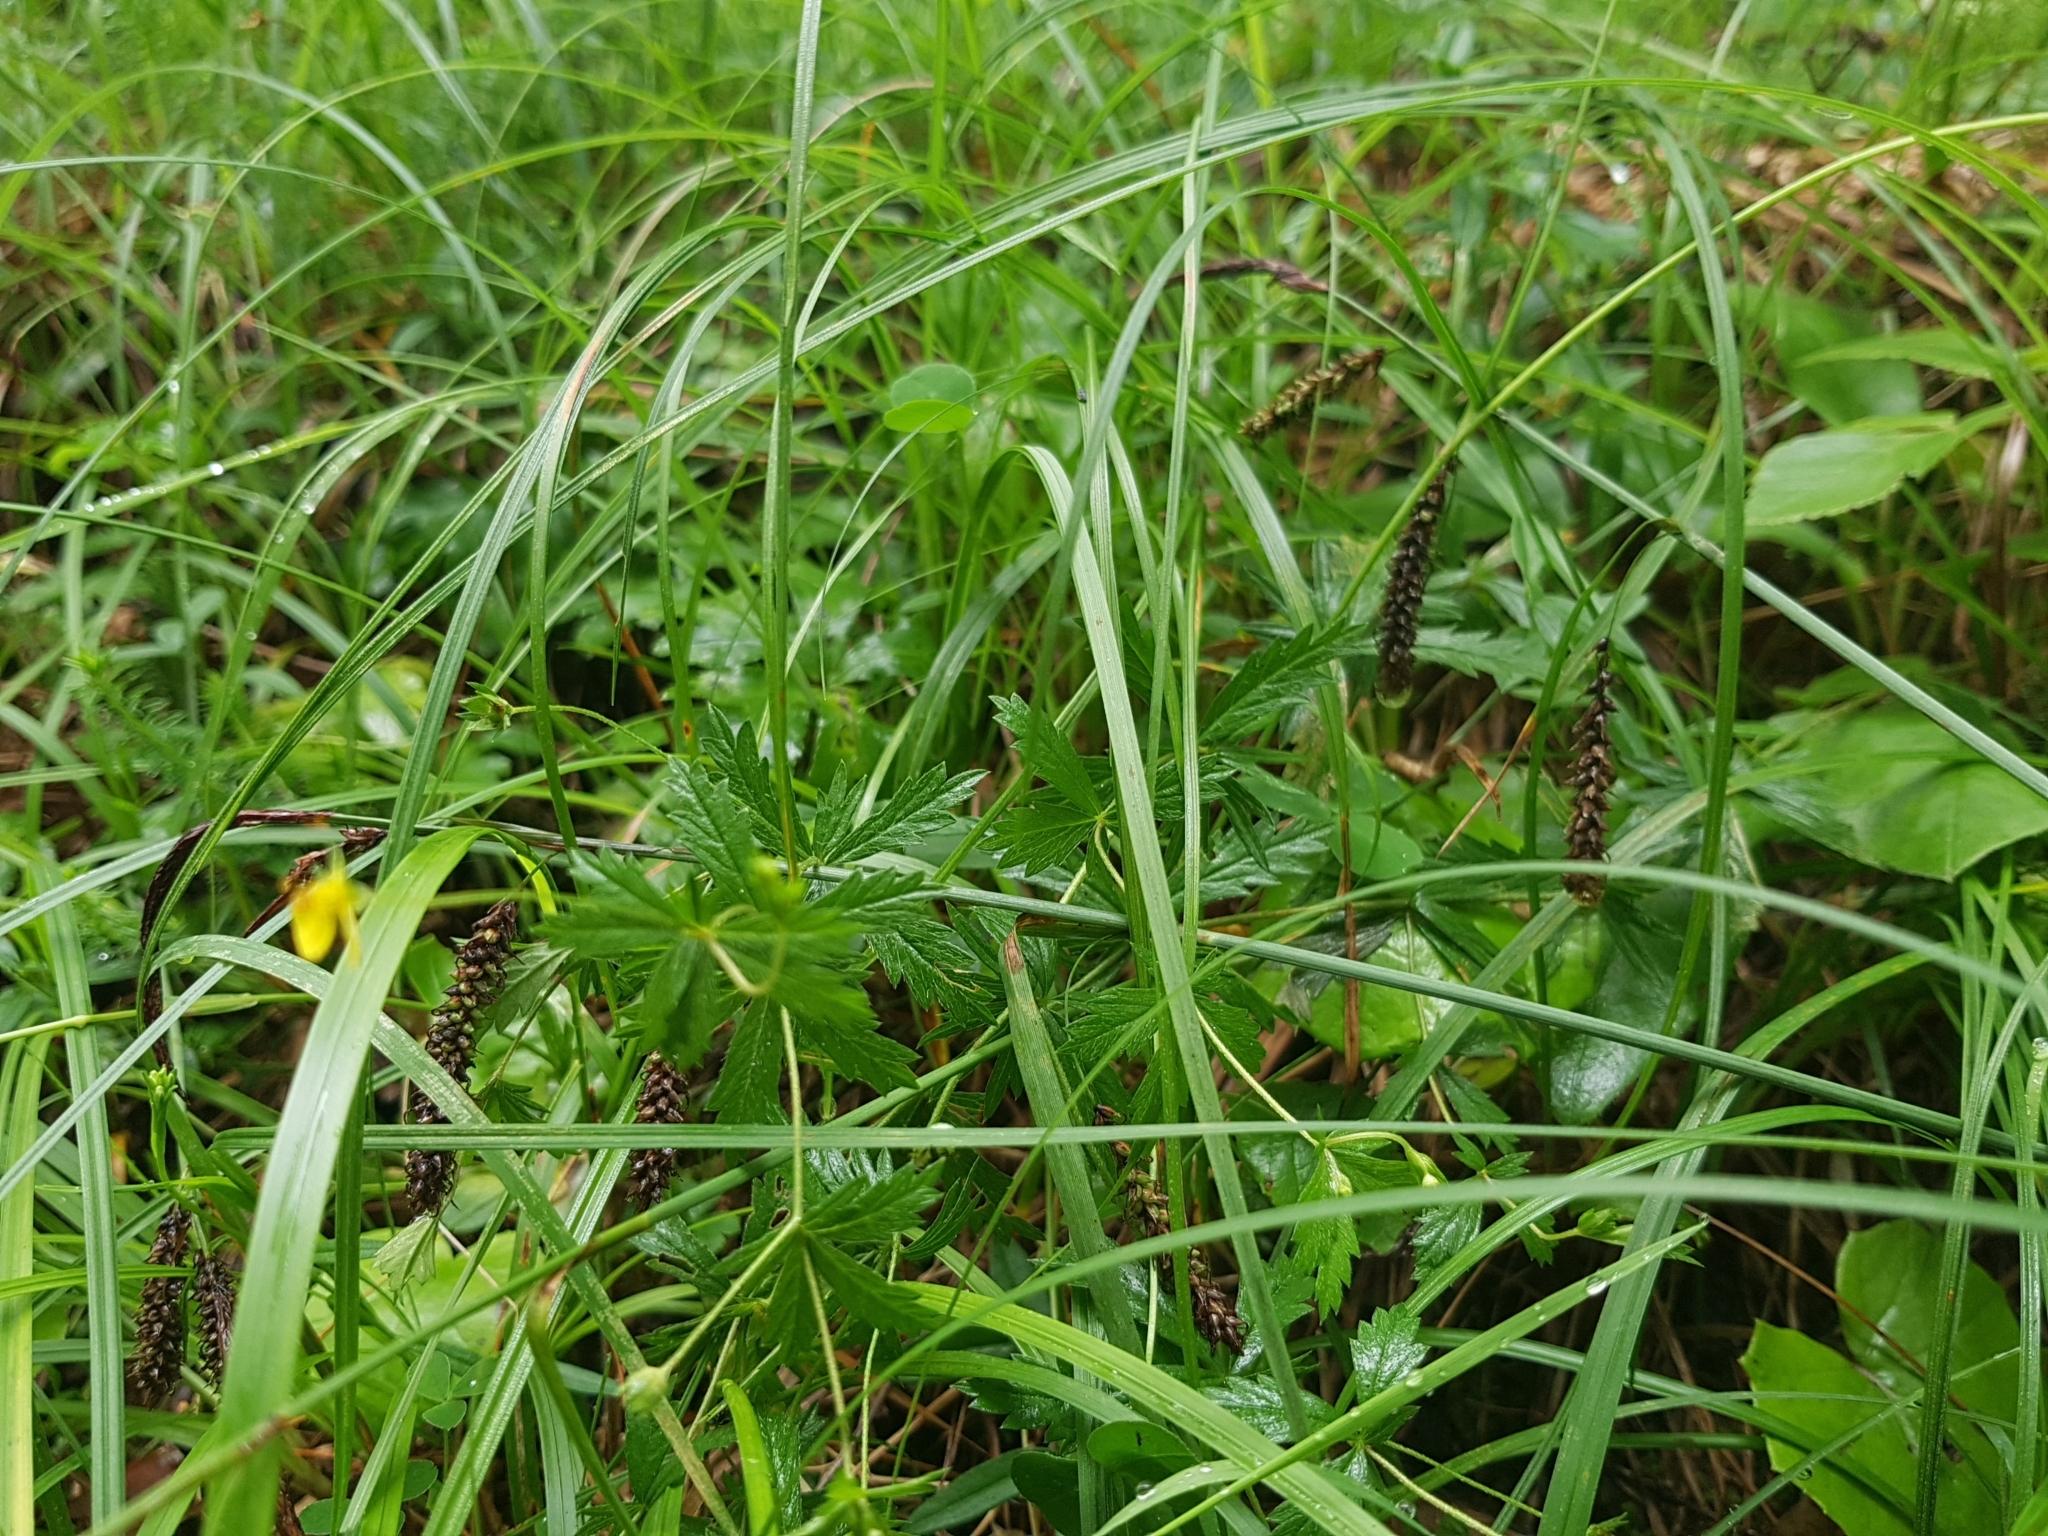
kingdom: Plantae
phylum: Tracheophyta
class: Magnoliopsida
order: Rosales
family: Rosaceae
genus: Potentilla
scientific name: Potentilla erecta
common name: Tormentil
